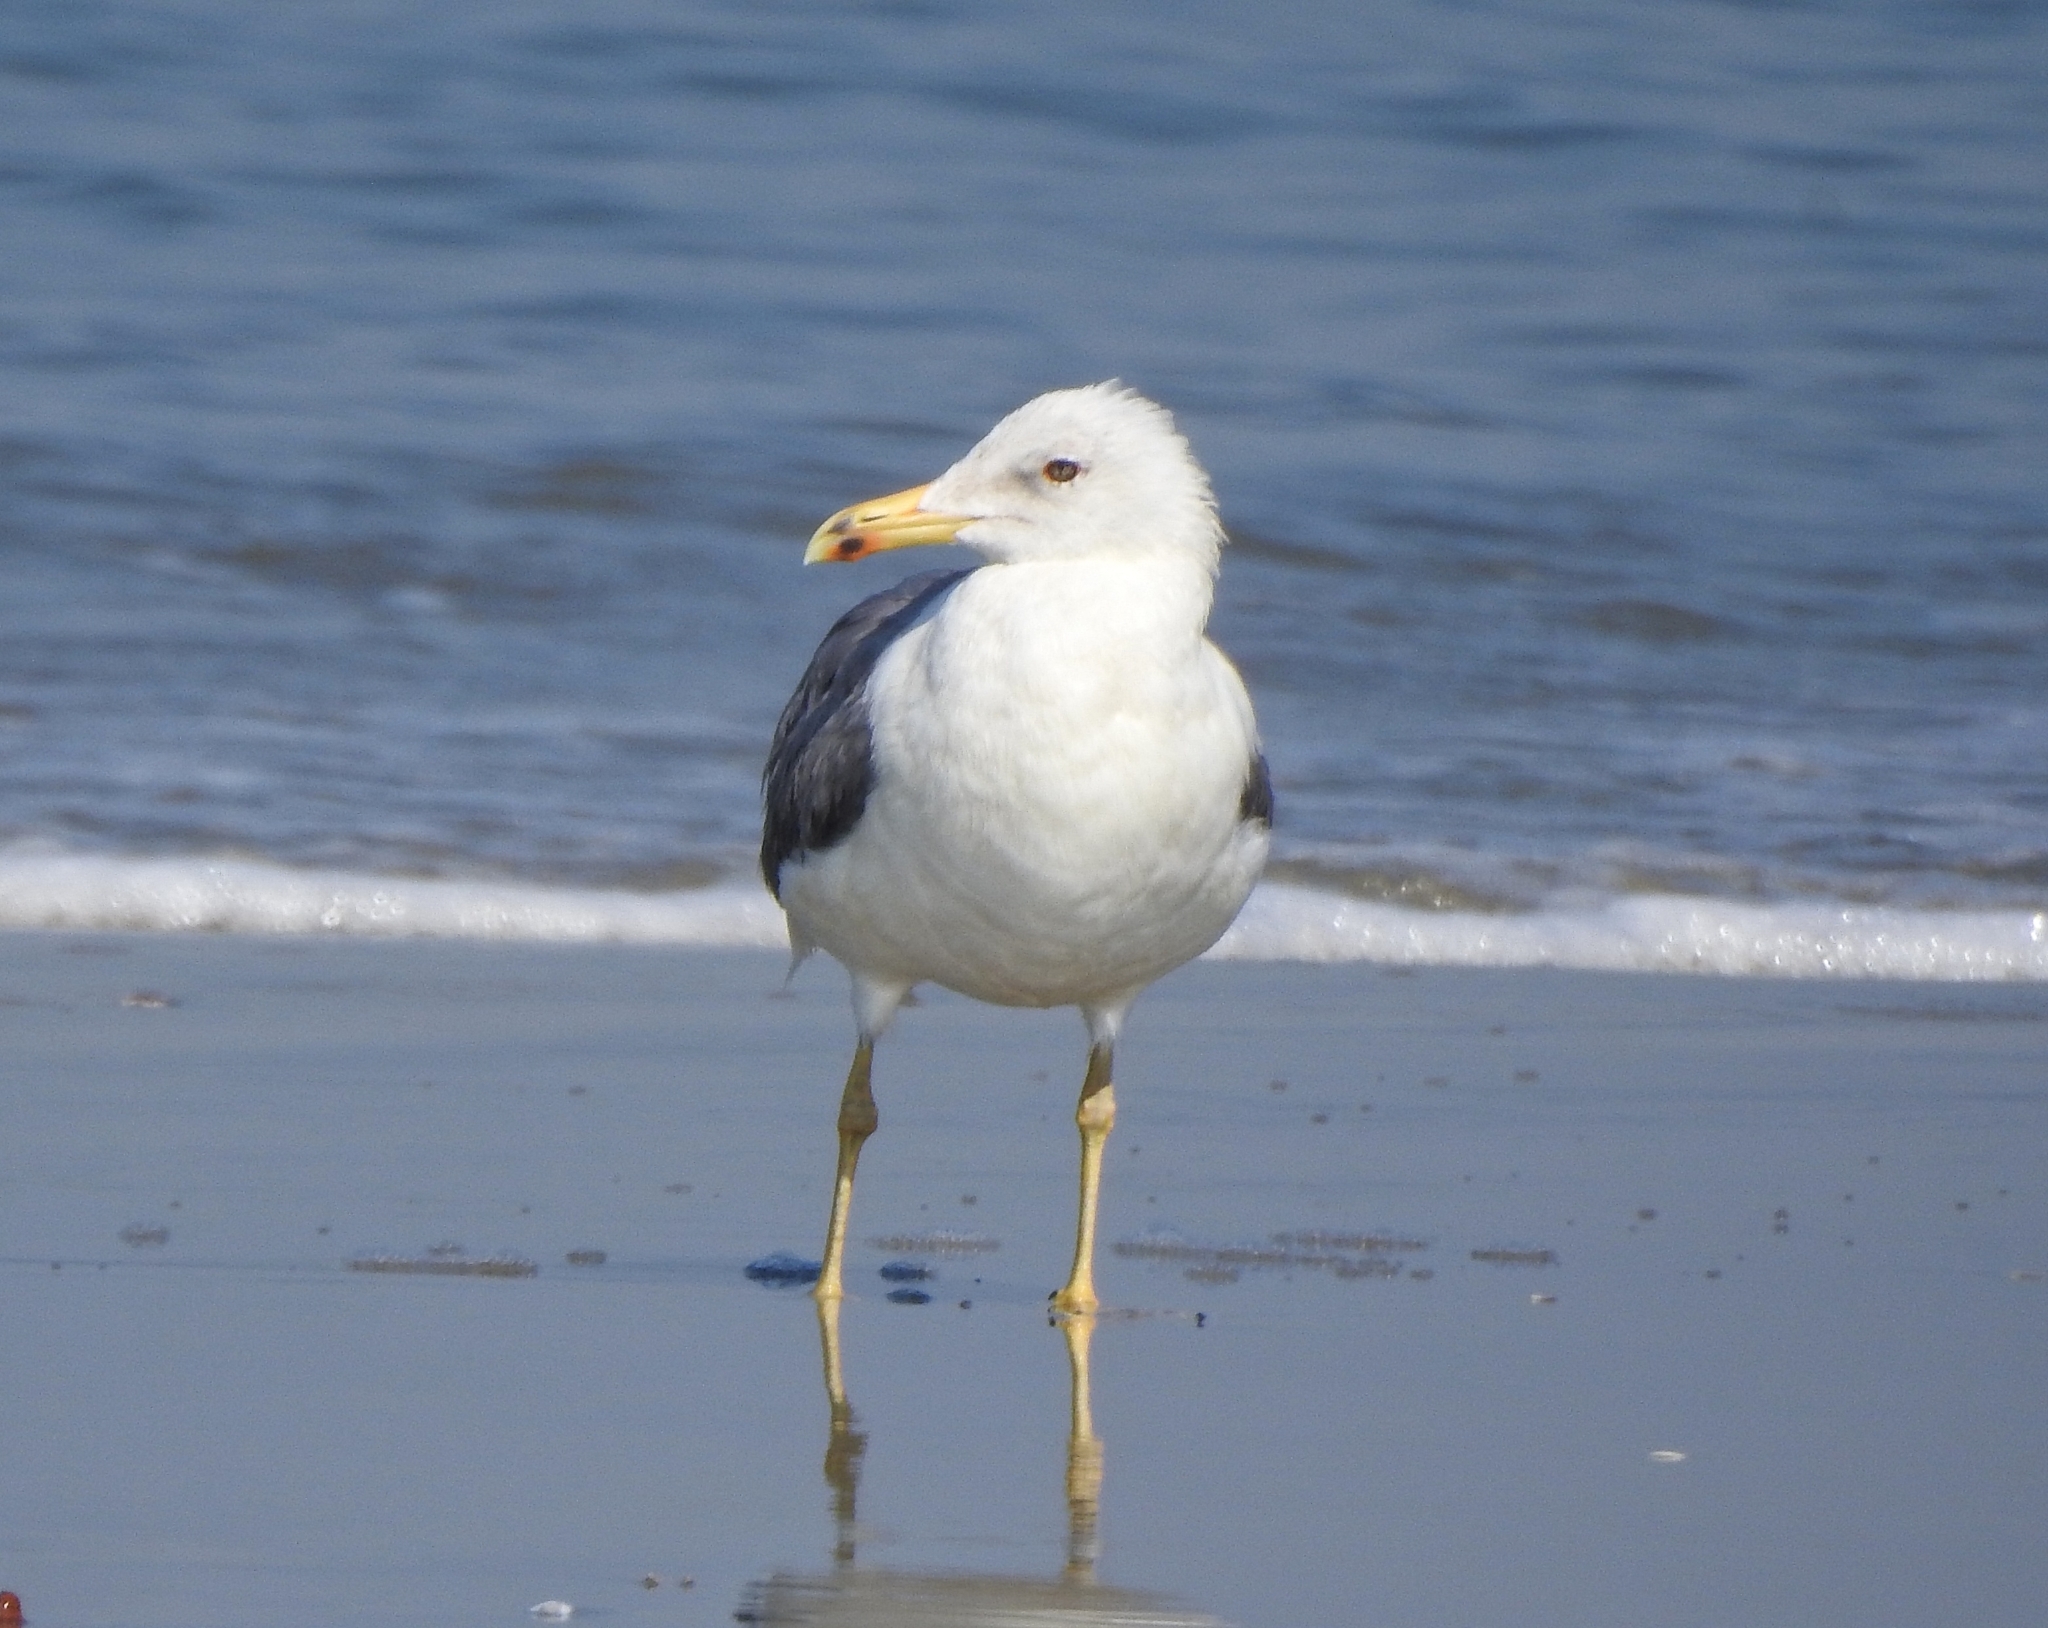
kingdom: Animalia
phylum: Chordata
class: Aves
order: Charadriiformes
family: Laridae
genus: Larus
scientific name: Larus fuscus
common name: Lesser black-backed gull
